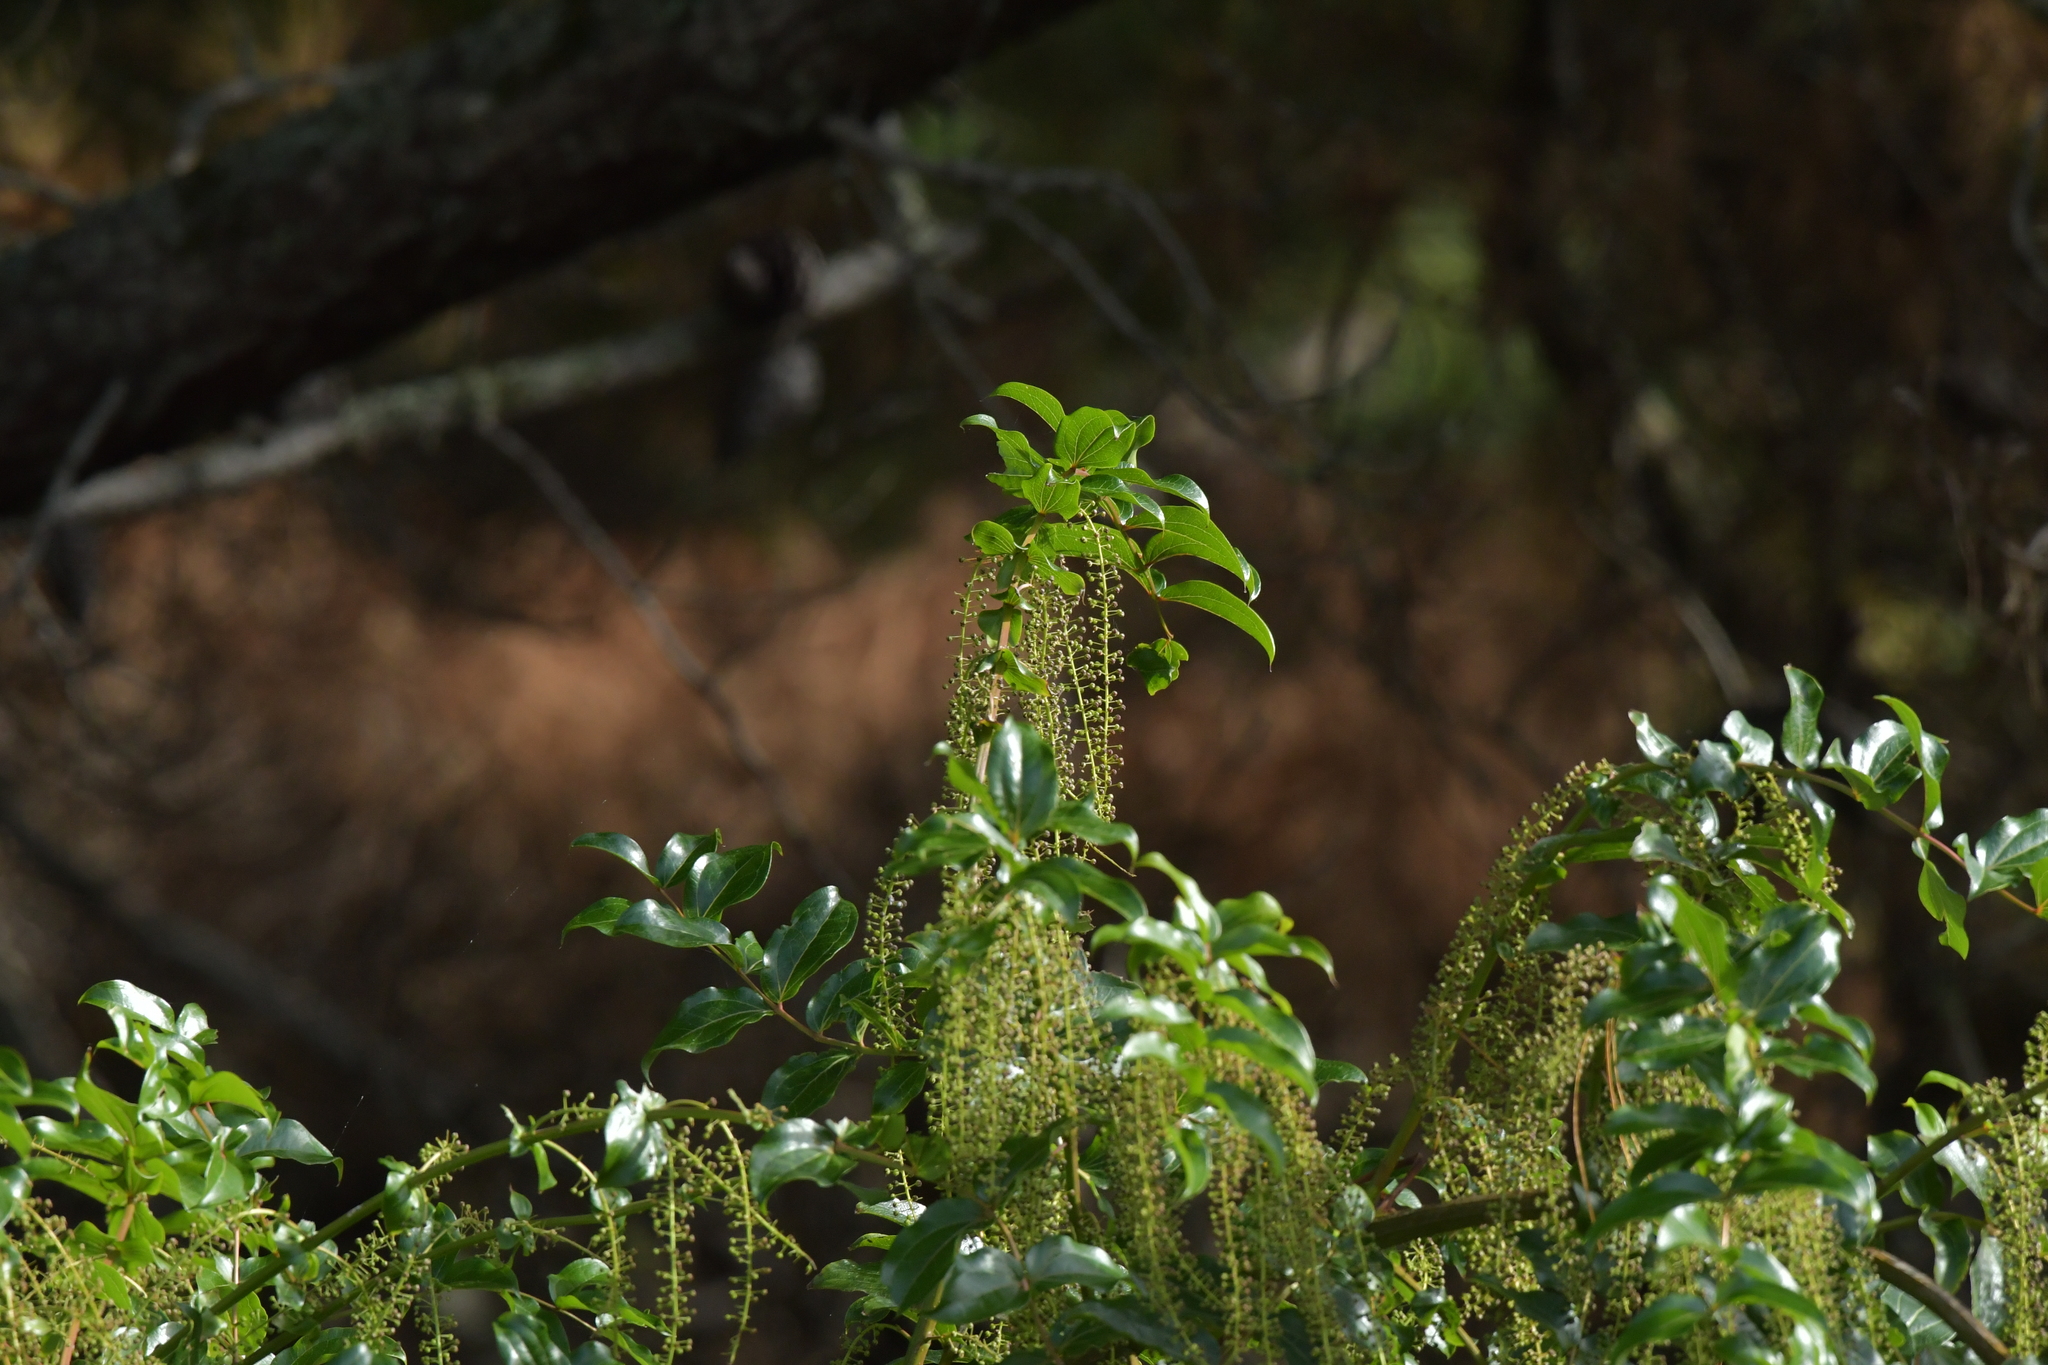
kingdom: Plantae
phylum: Tracheophyta
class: Magnoliopsida
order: Cucurbitales
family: Coriariaceae
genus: Coriaria
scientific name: Coriaria arborea
